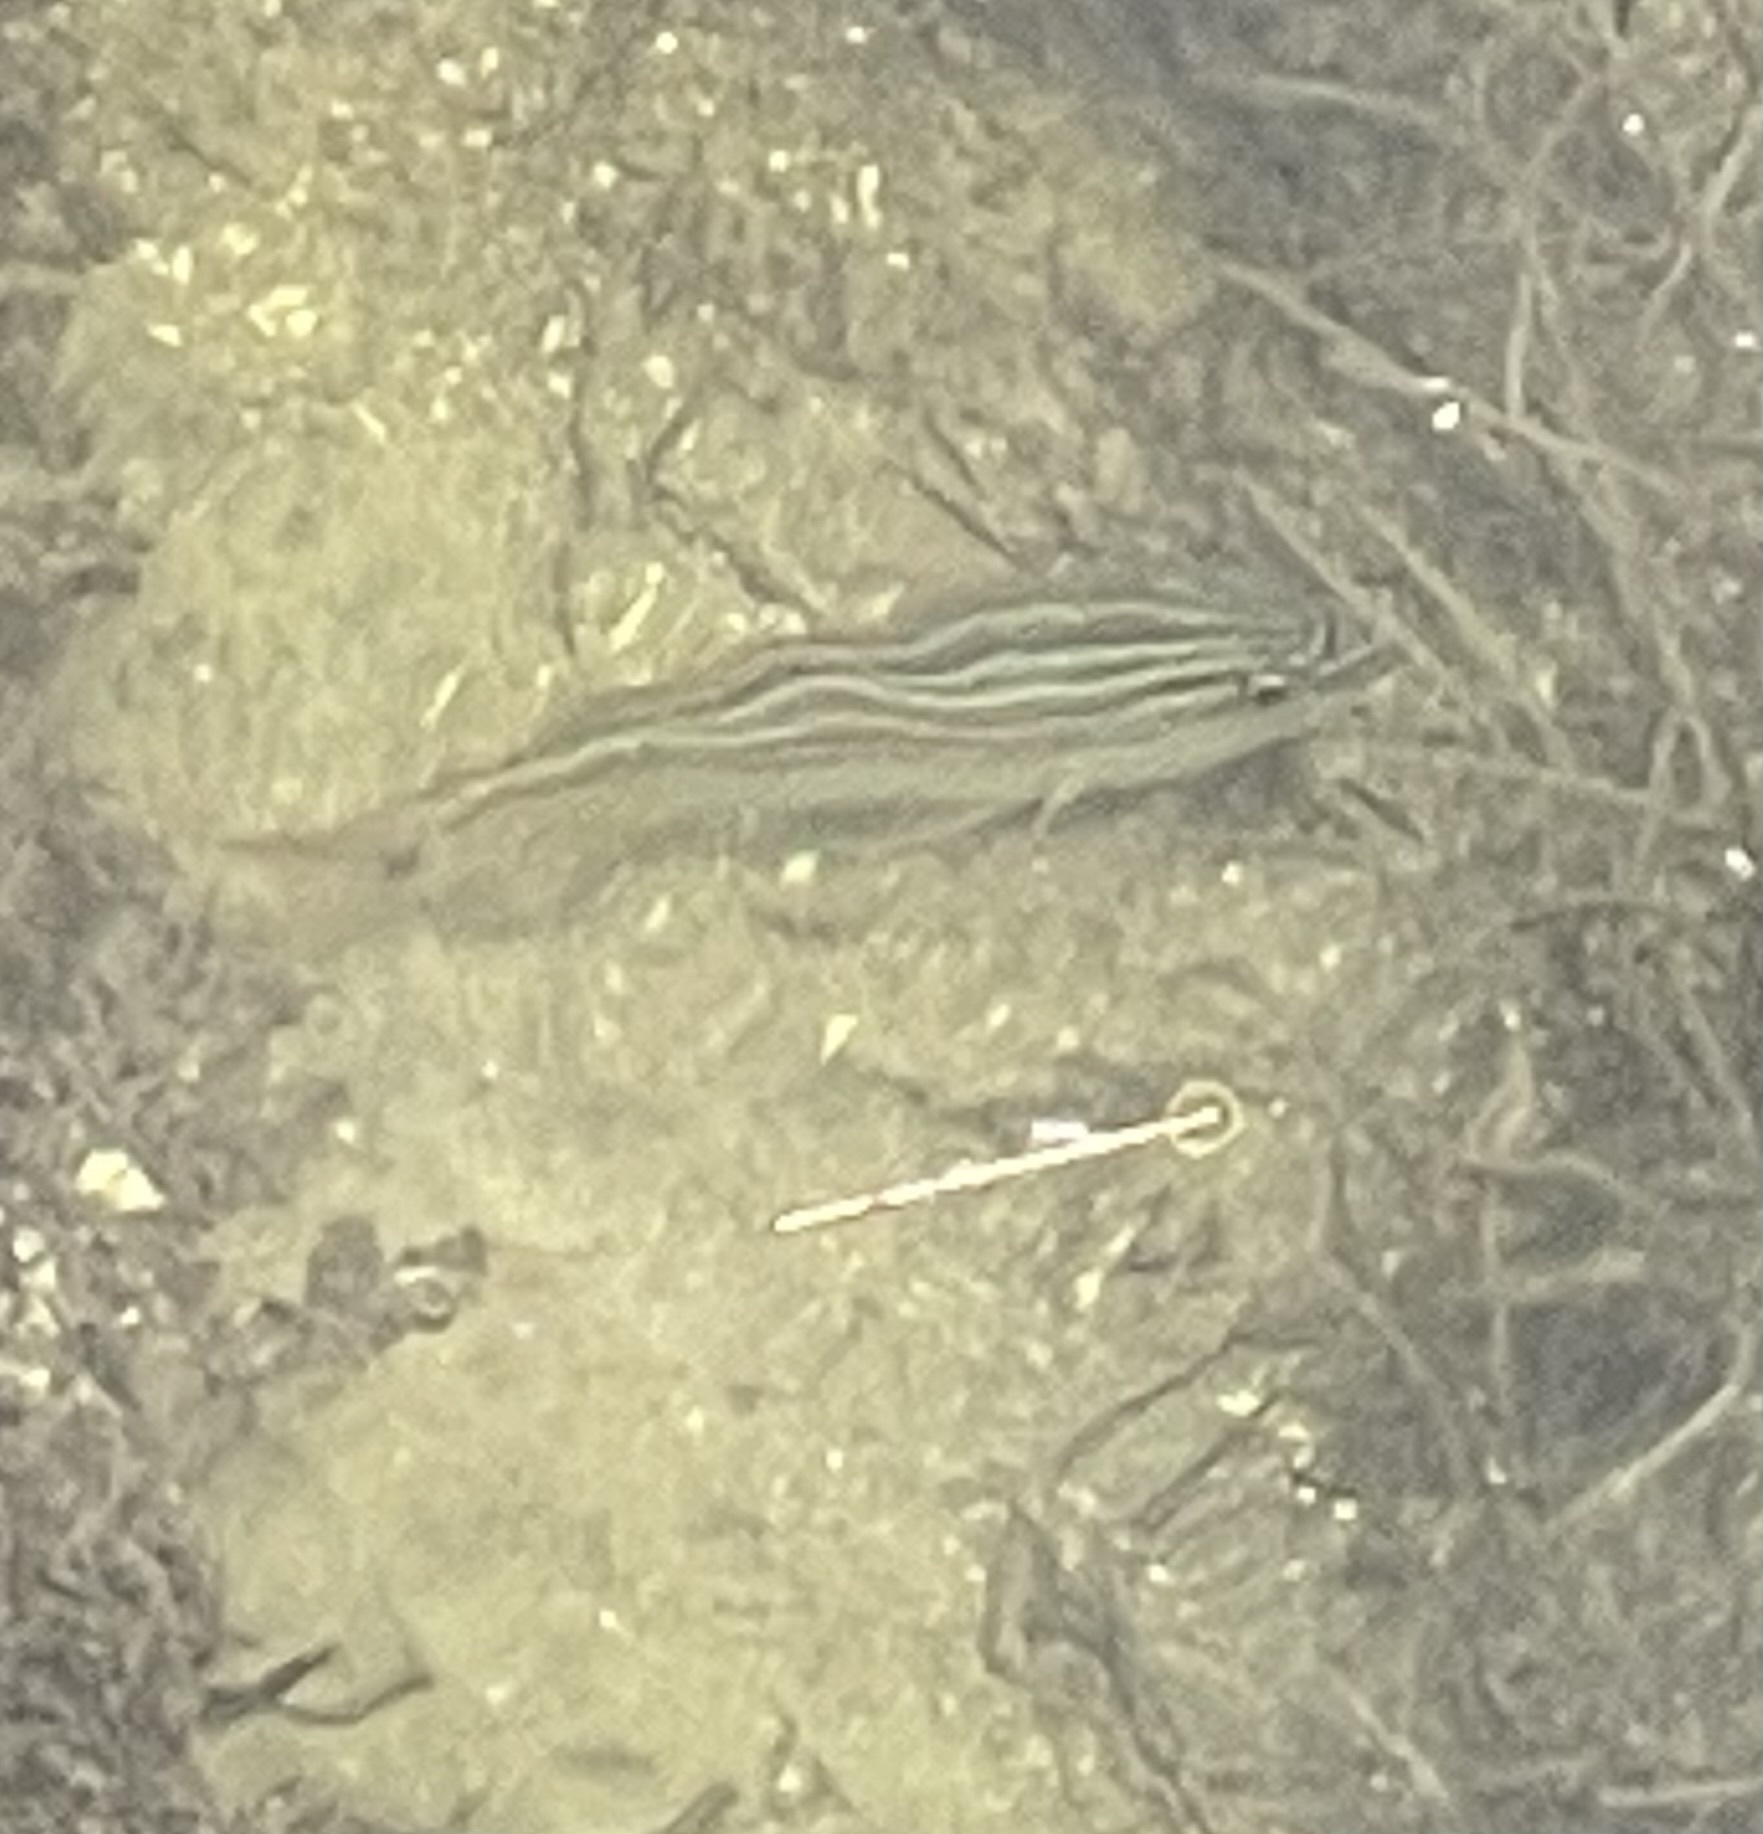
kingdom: Animalia
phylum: Chordata
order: Perciformes
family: Haemulidae
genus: Haemulon
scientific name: Haemulon sciurus
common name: Bluestriped grunt
